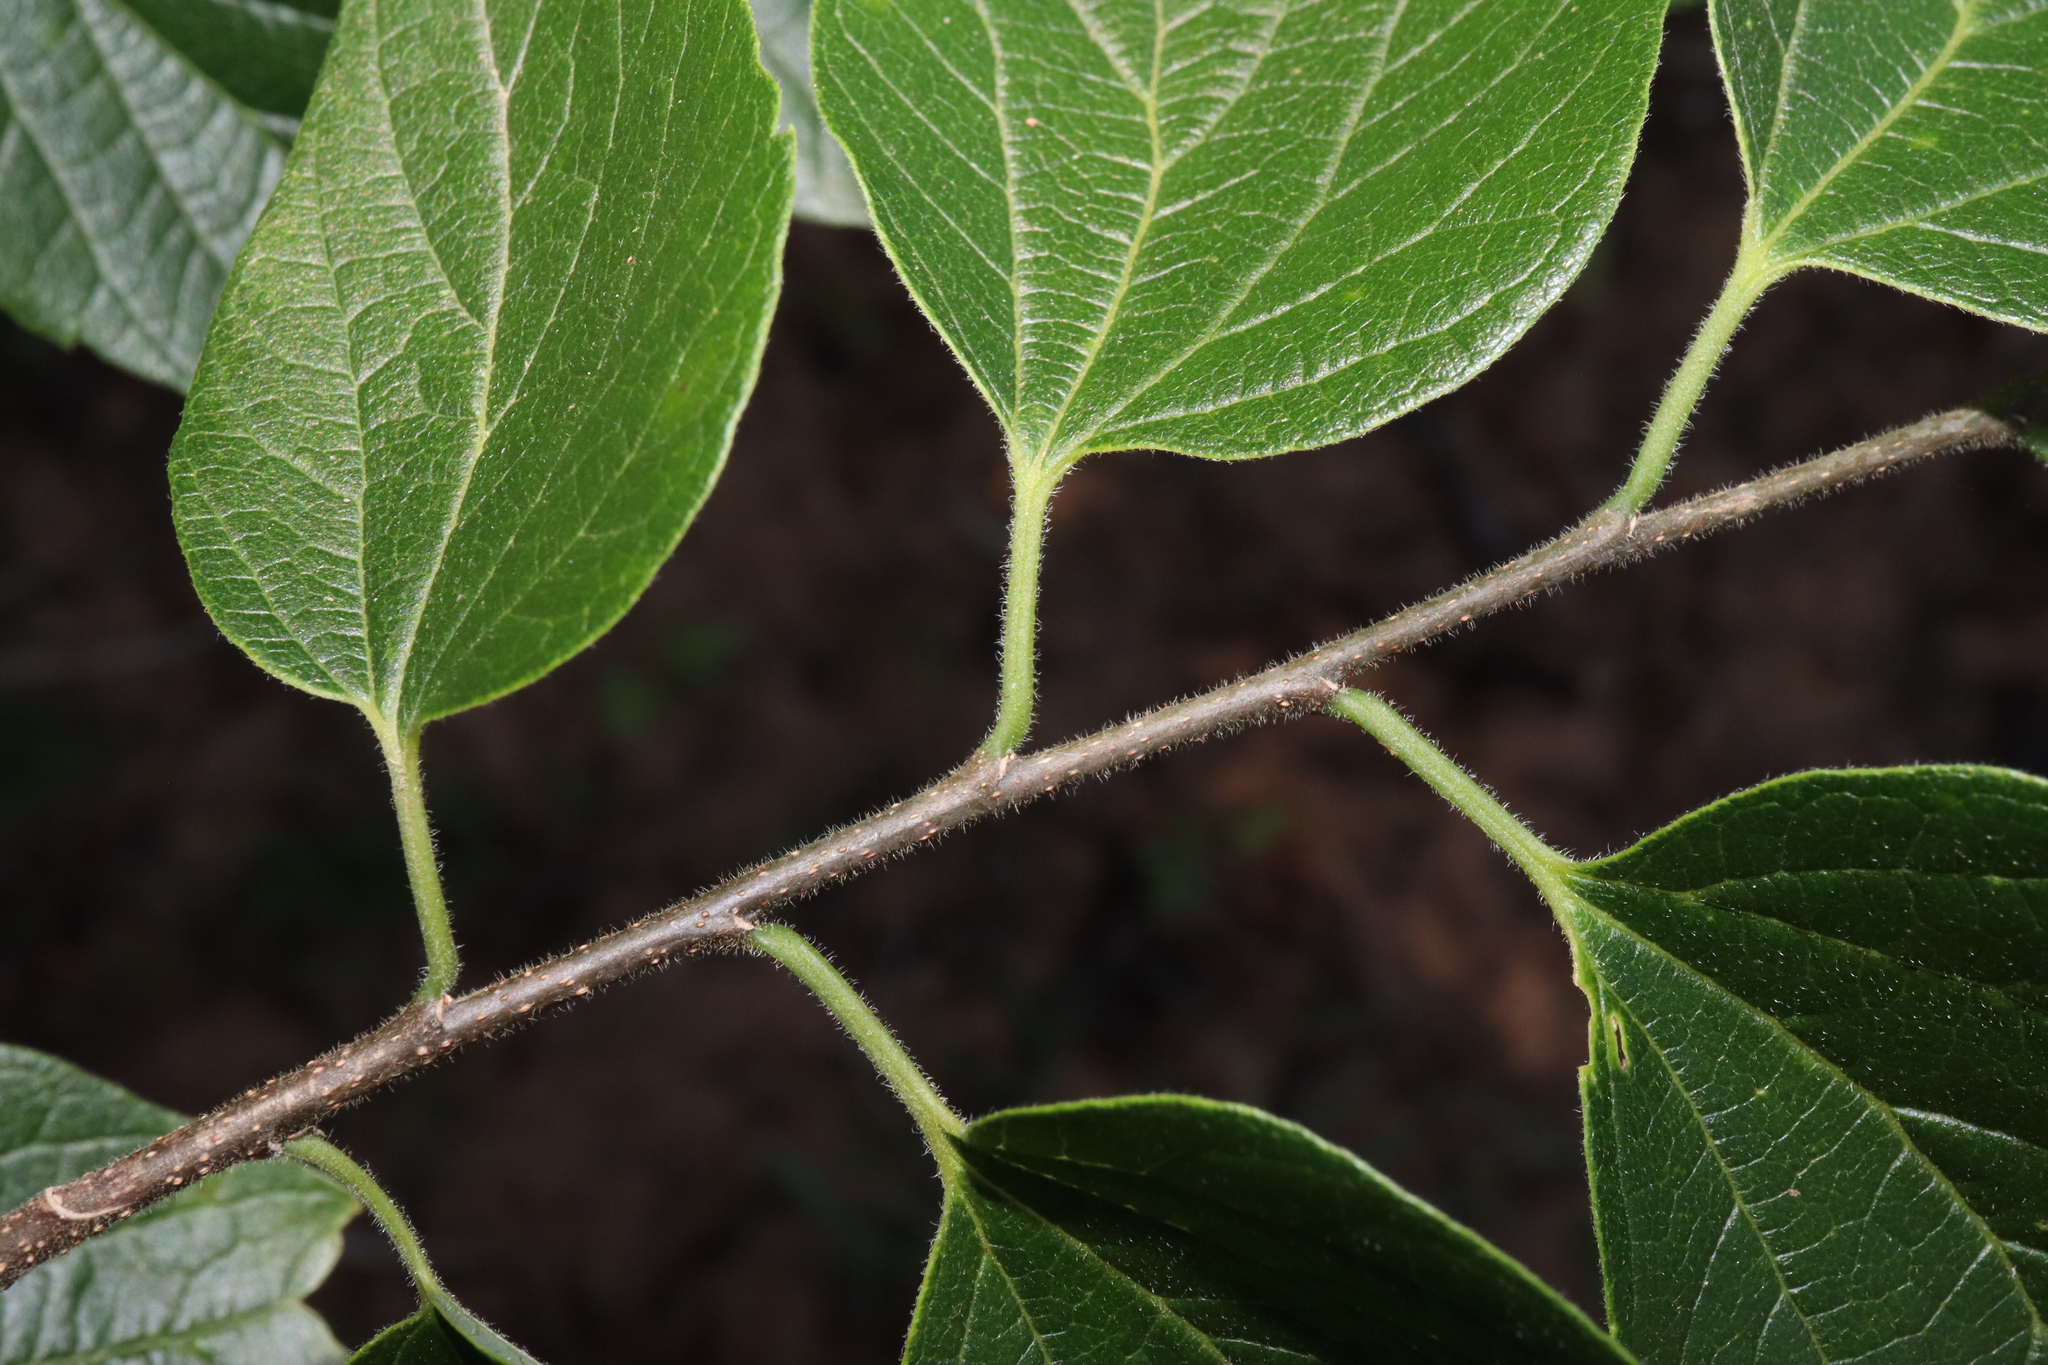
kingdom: Plantae
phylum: Tracheophyta
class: Magnoliopsida
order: Rosales
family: Cannabaceae
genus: Celtis
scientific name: Celtis occidentalis
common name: Common hackberry
